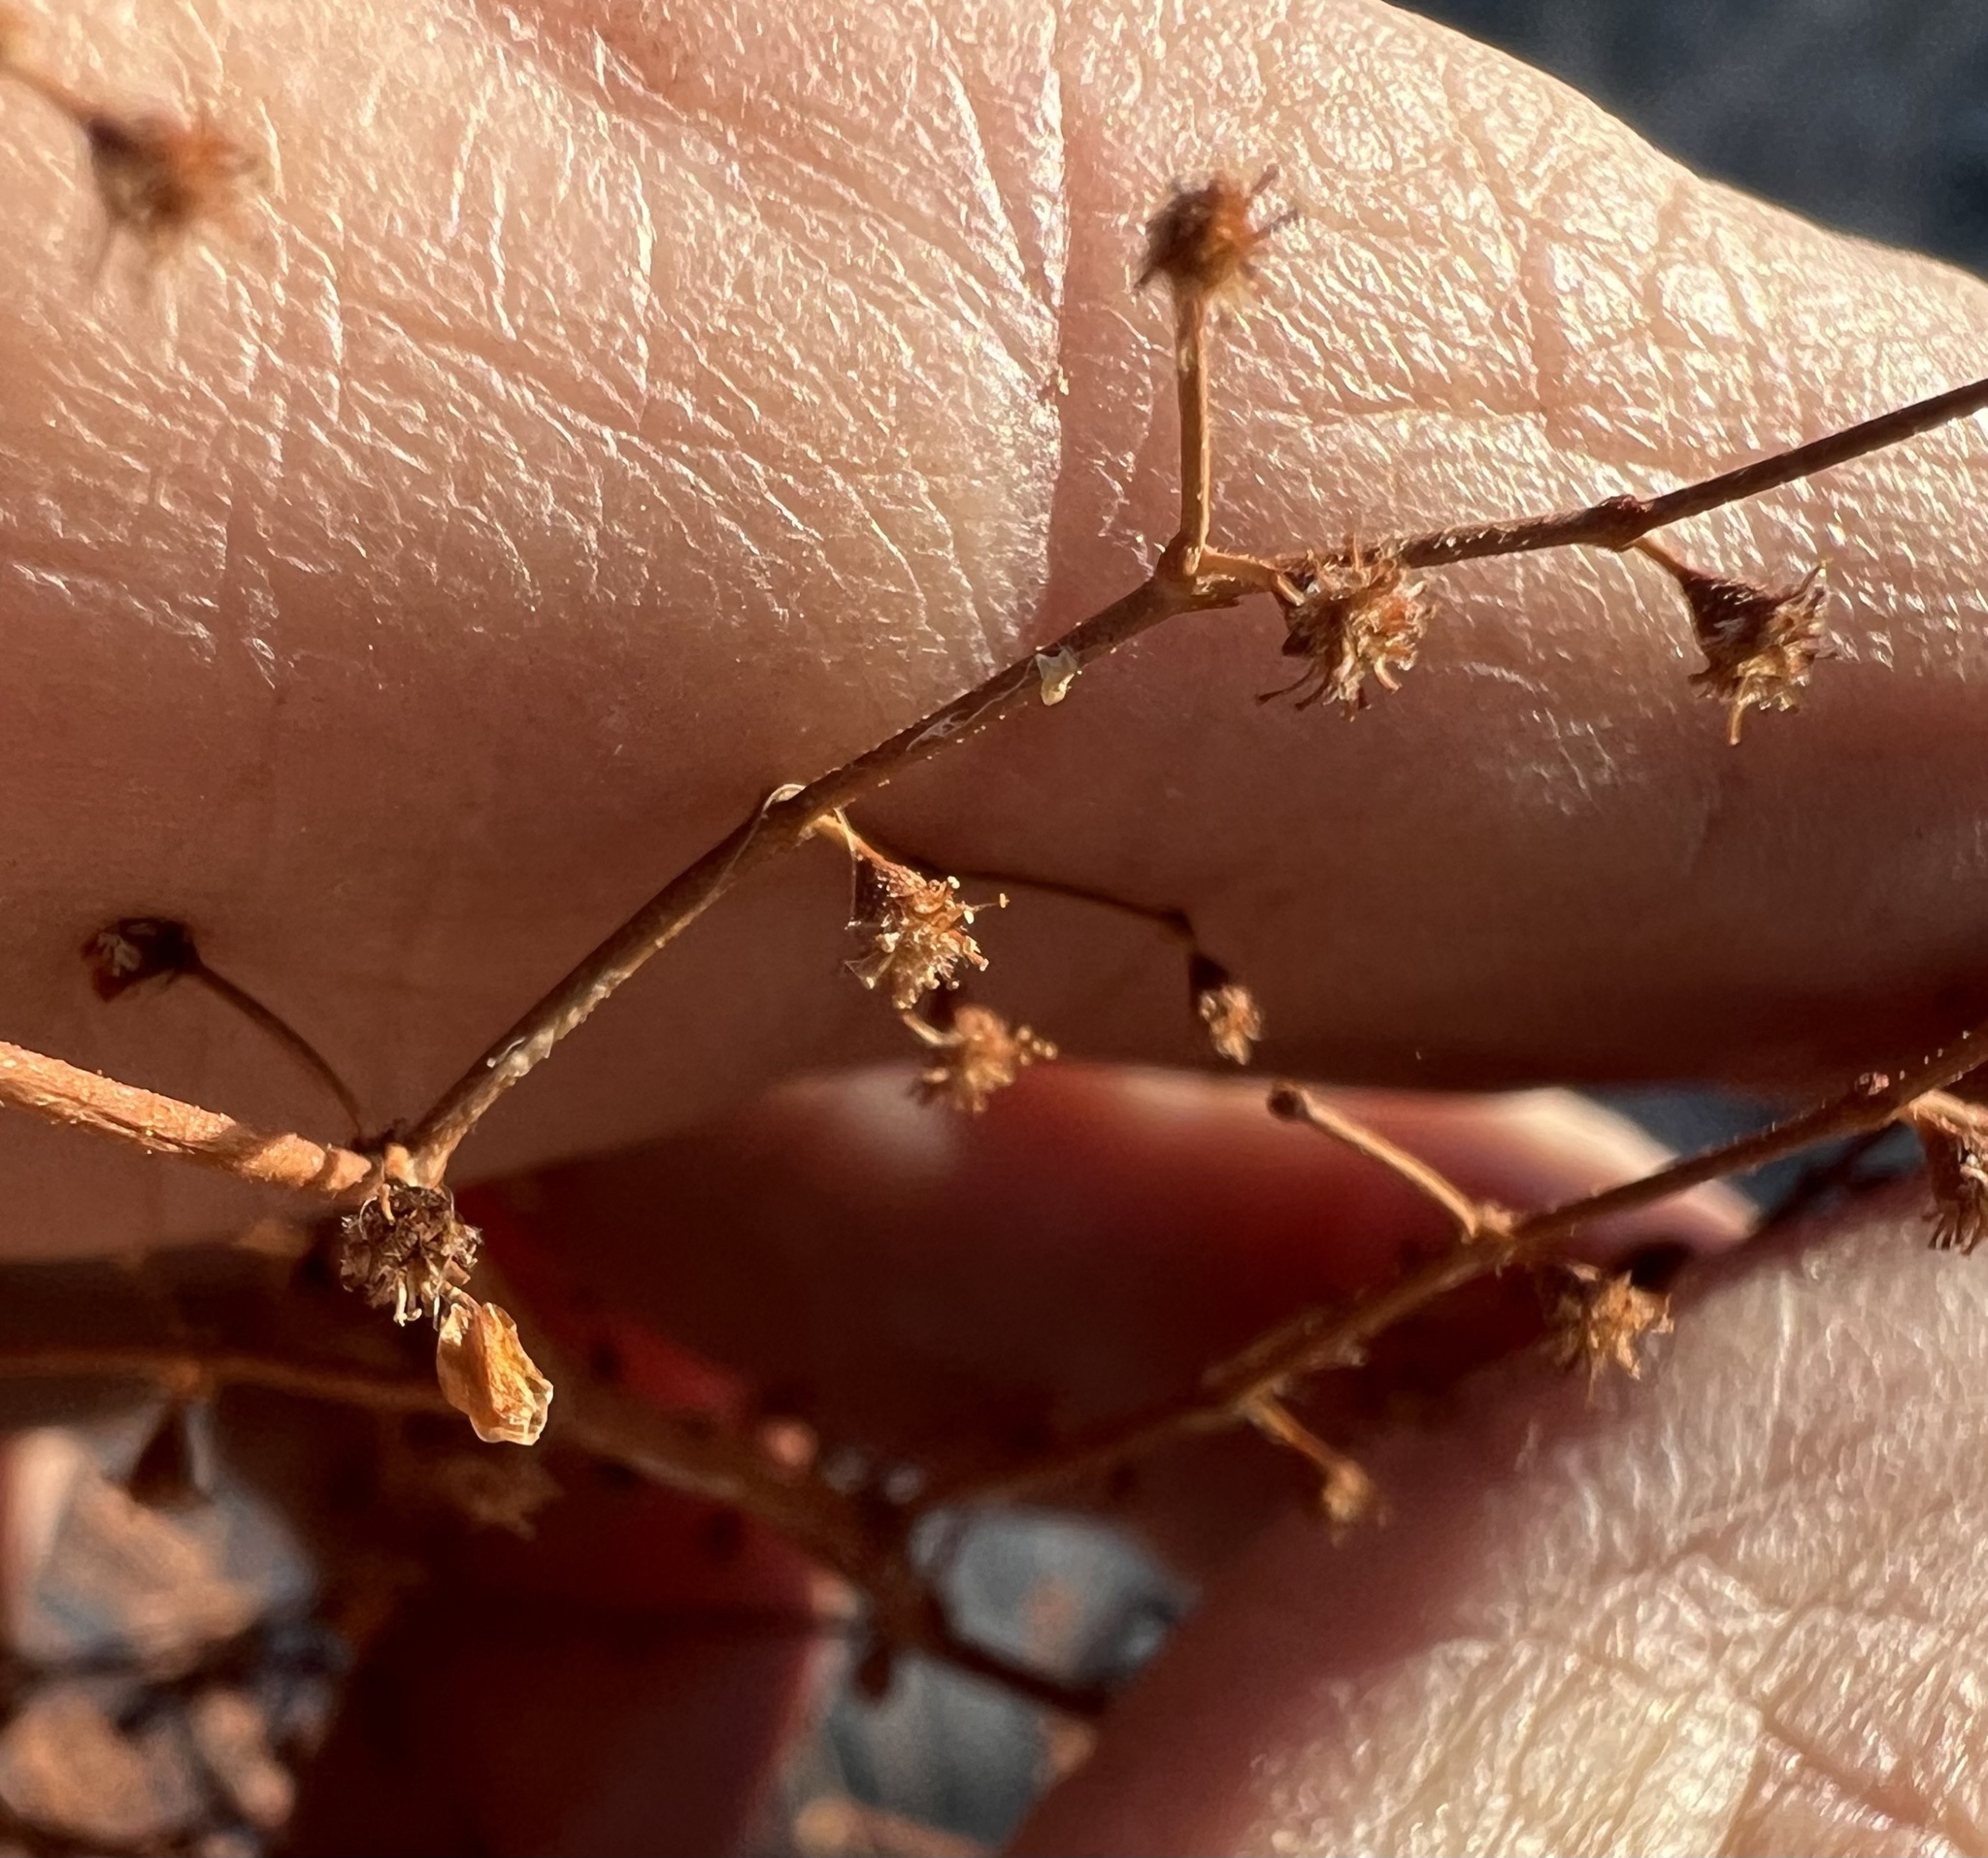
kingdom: Plantae
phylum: Tracheophyta
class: Magnoliopsida
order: Caryophyllales
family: Polygonaceae
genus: Eriogonum
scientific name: Eriogonum brachypodum
